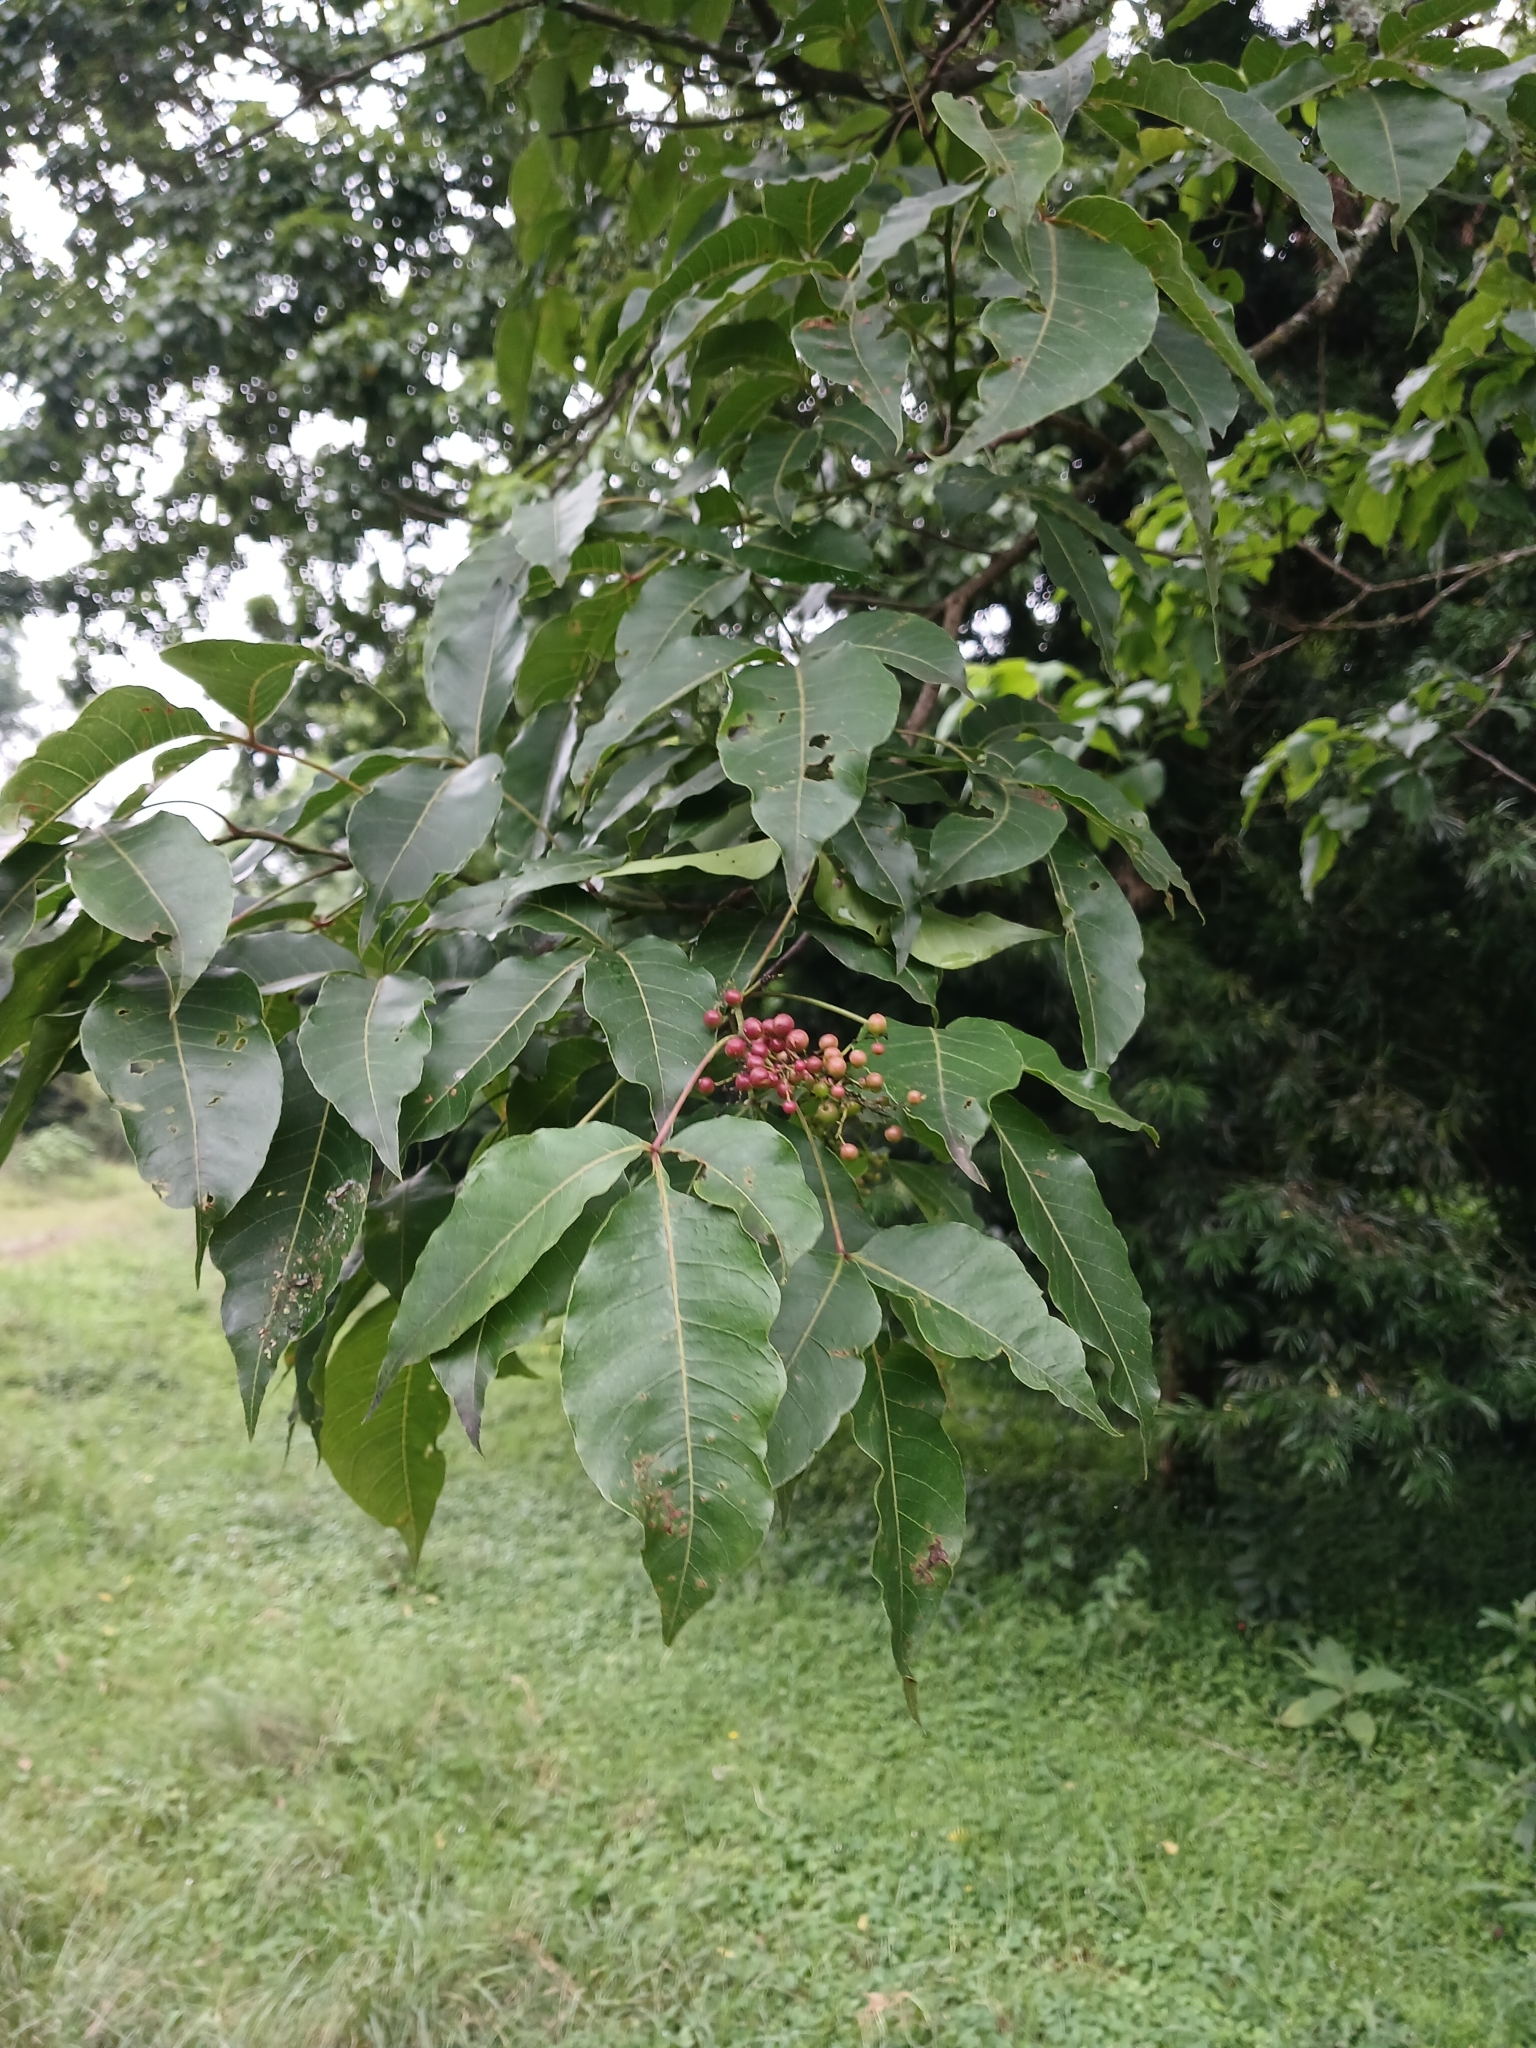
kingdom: Plantae
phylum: Tracheophyta
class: Magnoliopsida
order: Sapindales
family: Anacardiaceae
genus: Searsia
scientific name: Searsia chirindensis
